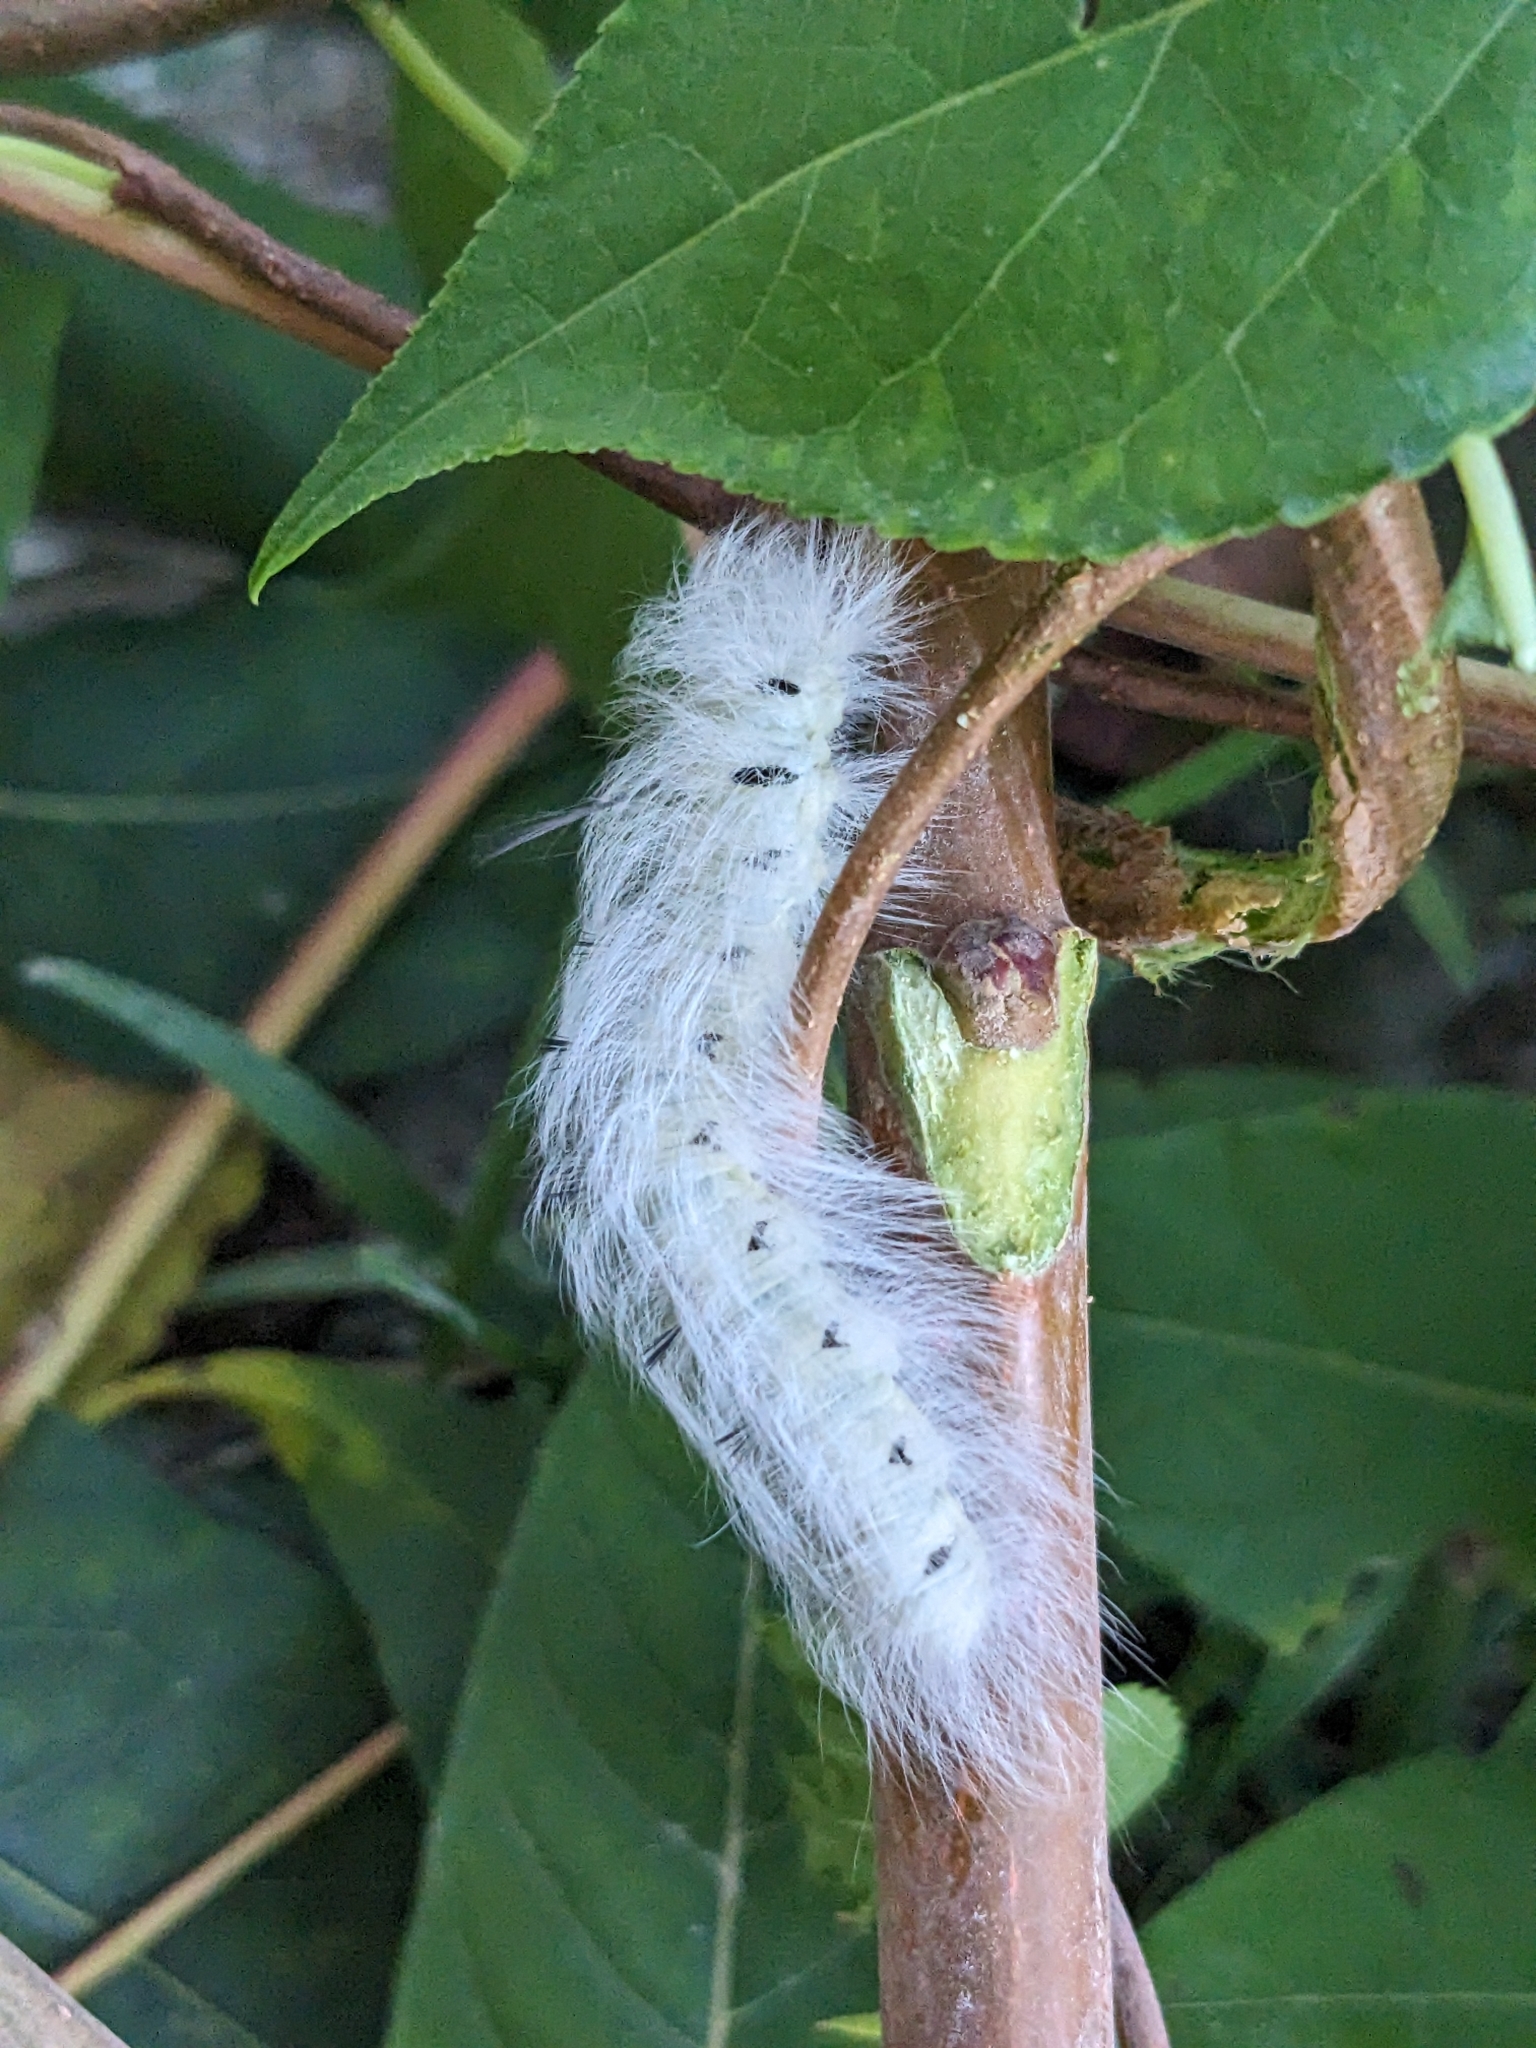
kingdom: Animalia
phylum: Arthropoda
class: Insecta
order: Lepidoptera
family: Apatelodidae
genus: Hygrochroa
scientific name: Hygrochroa Apatelodes torrefacta
